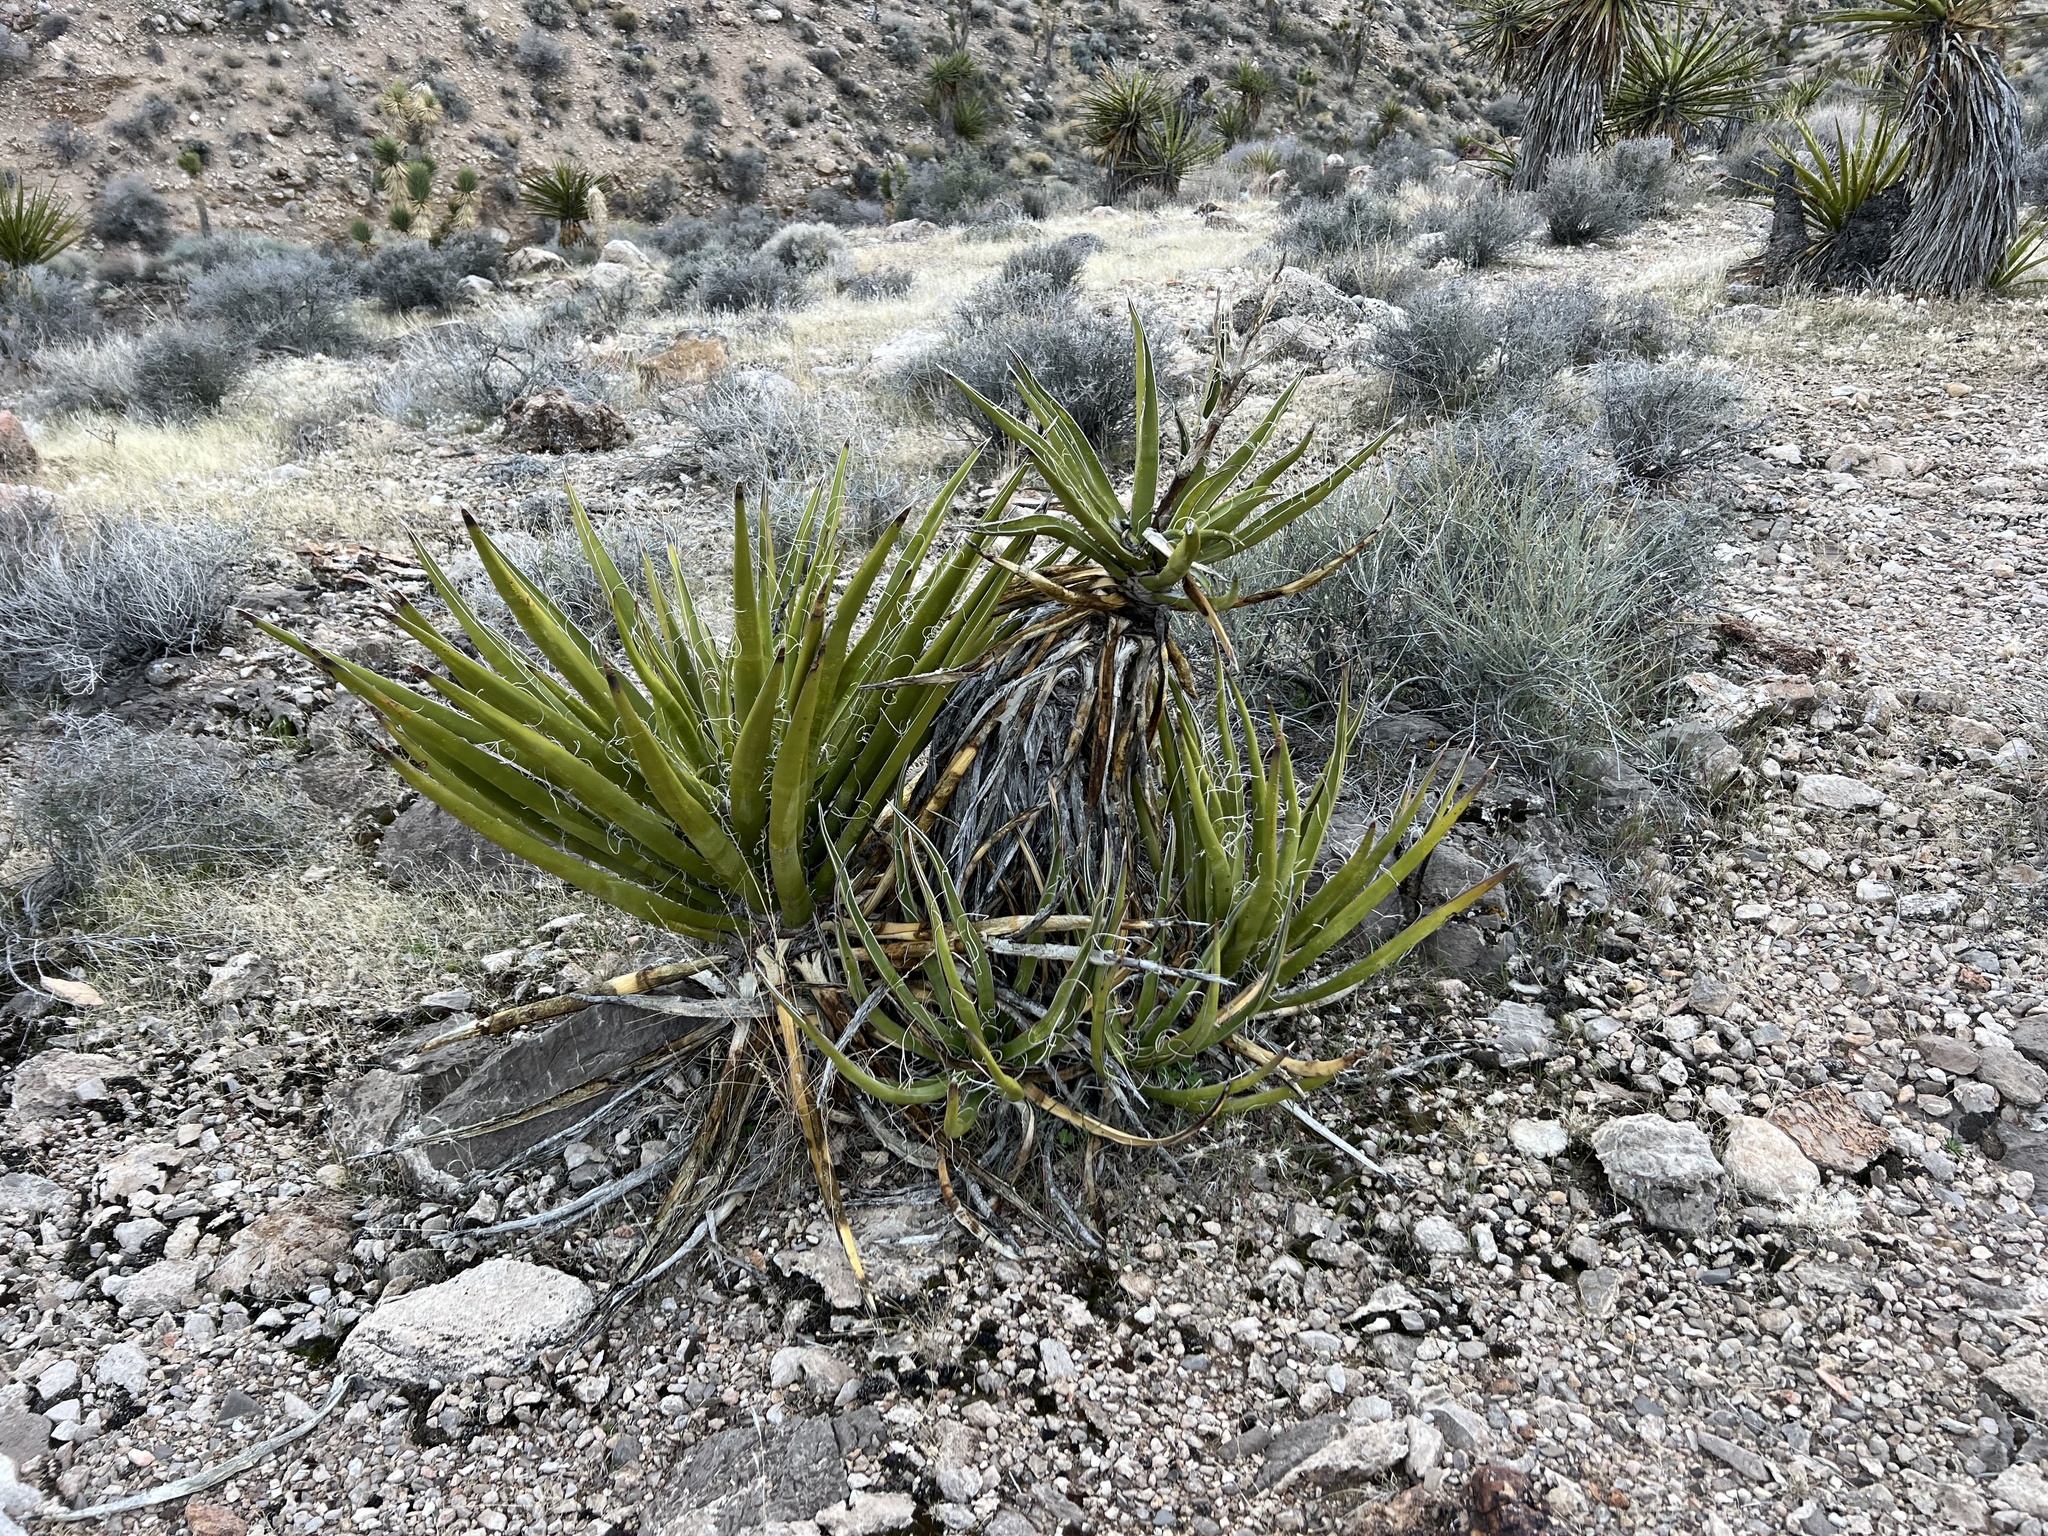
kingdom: Plantae
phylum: Tracheophyta
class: Liliopsida
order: Asparagales
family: Asparagaceae
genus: Yucca
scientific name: Yucca schidigera
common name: Mojave yucca
